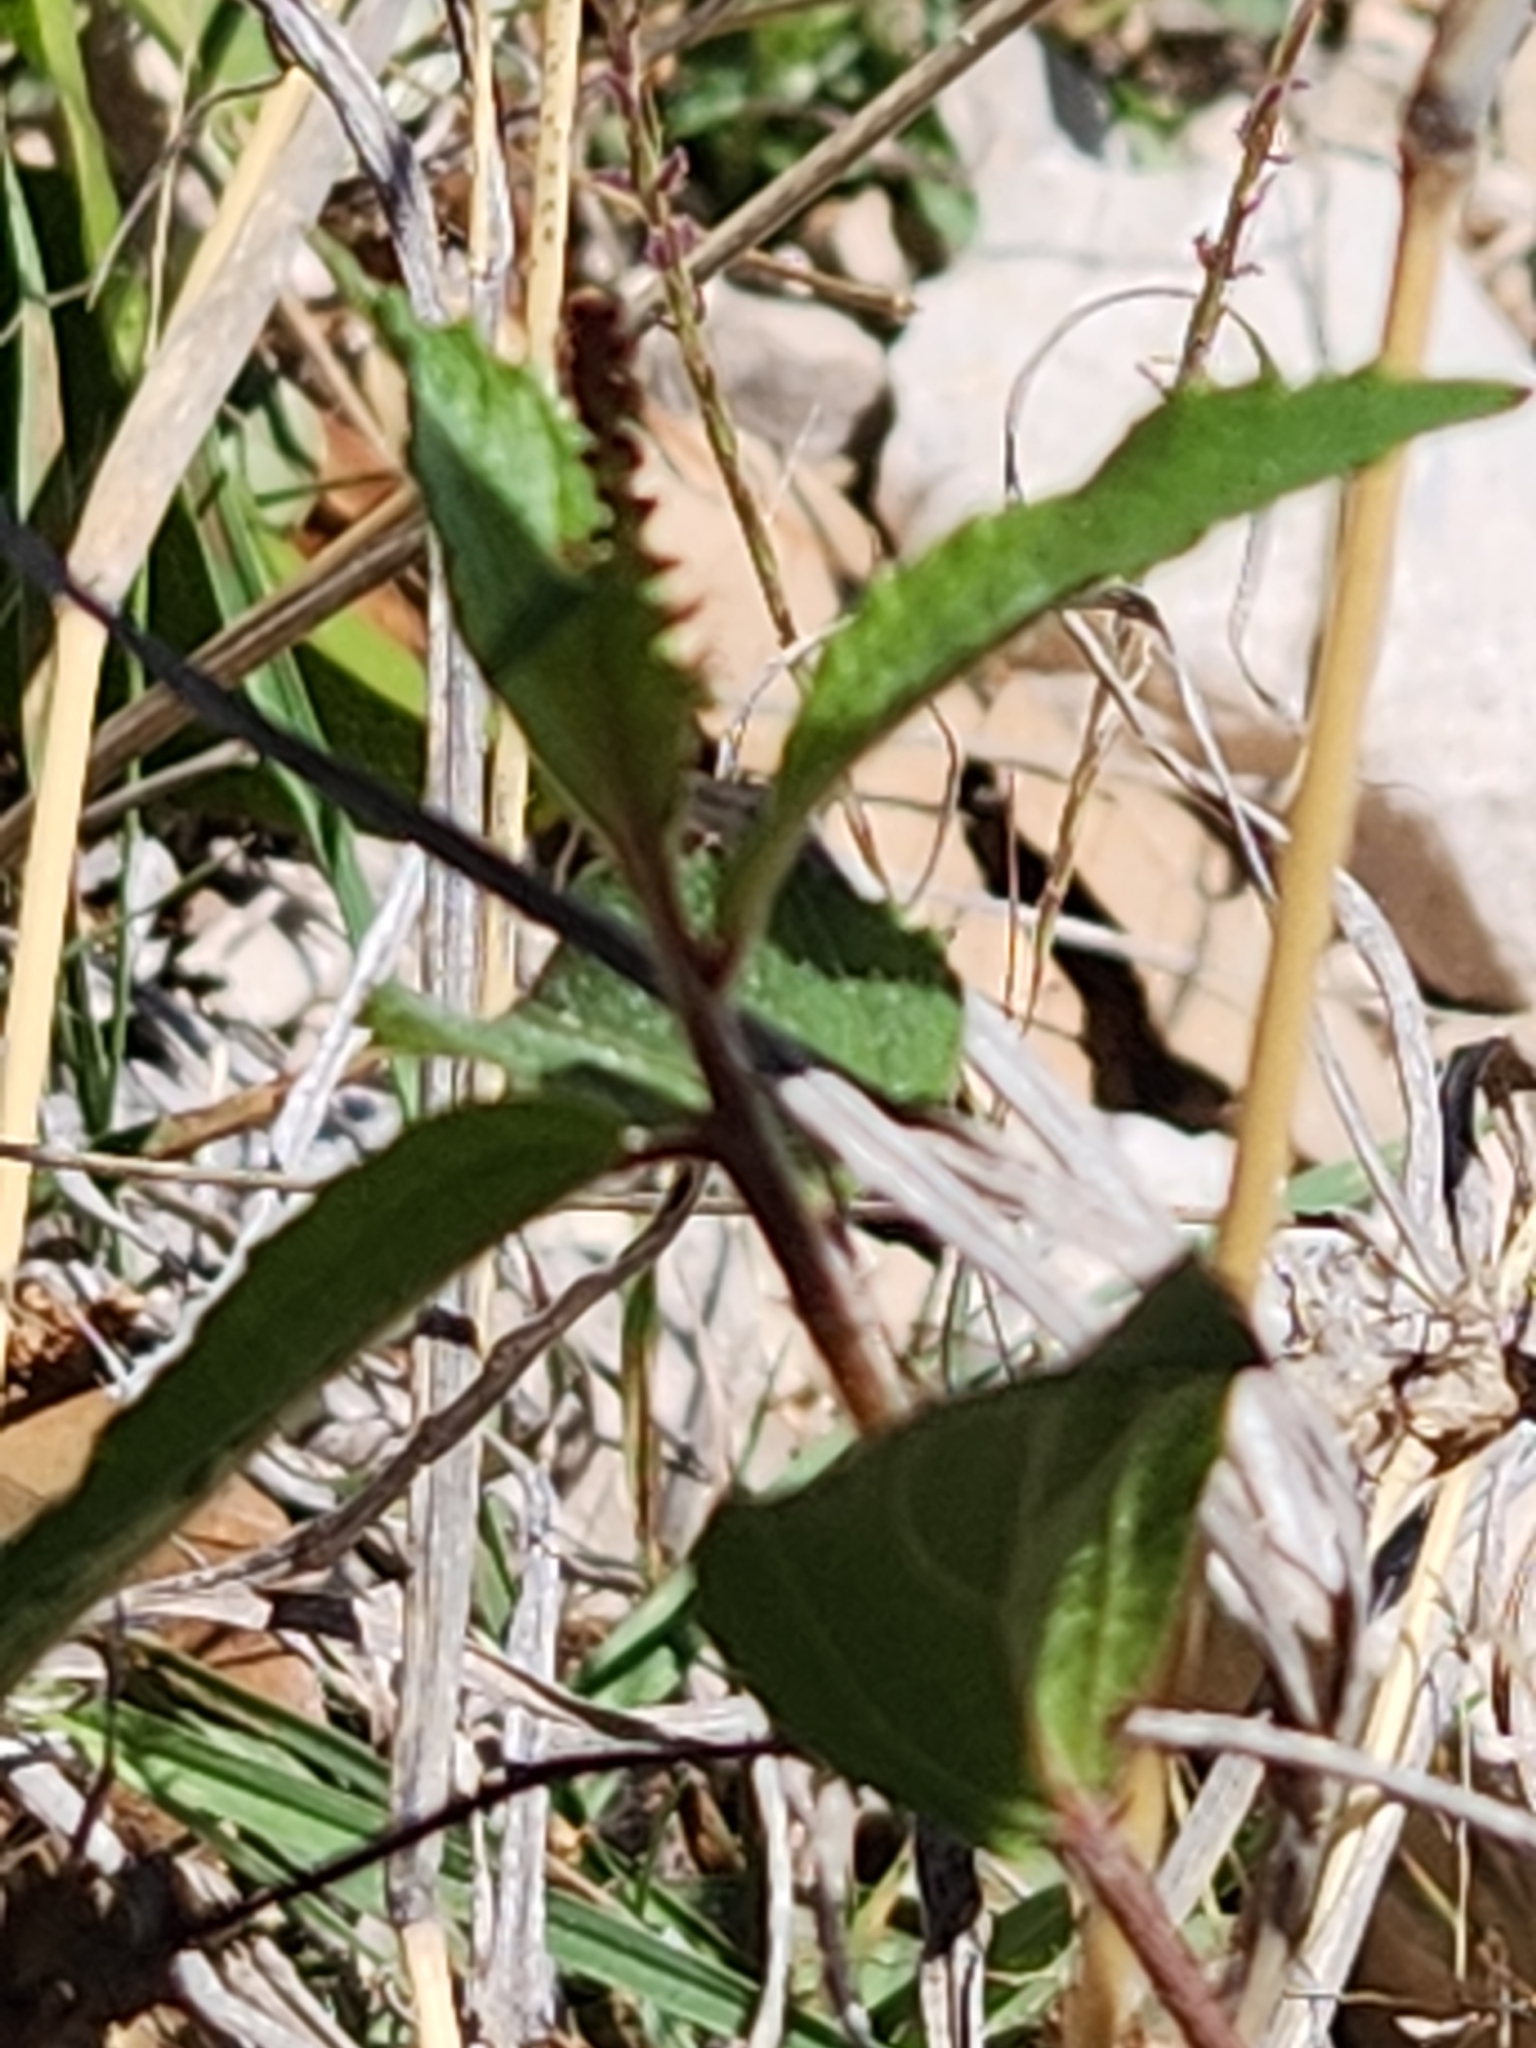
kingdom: Plantae
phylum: Tracheophyta
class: Magnoliopsida
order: Malpighiales
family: Euphorbiaceae
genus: Acalypha
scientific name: Acalypha phleoides
